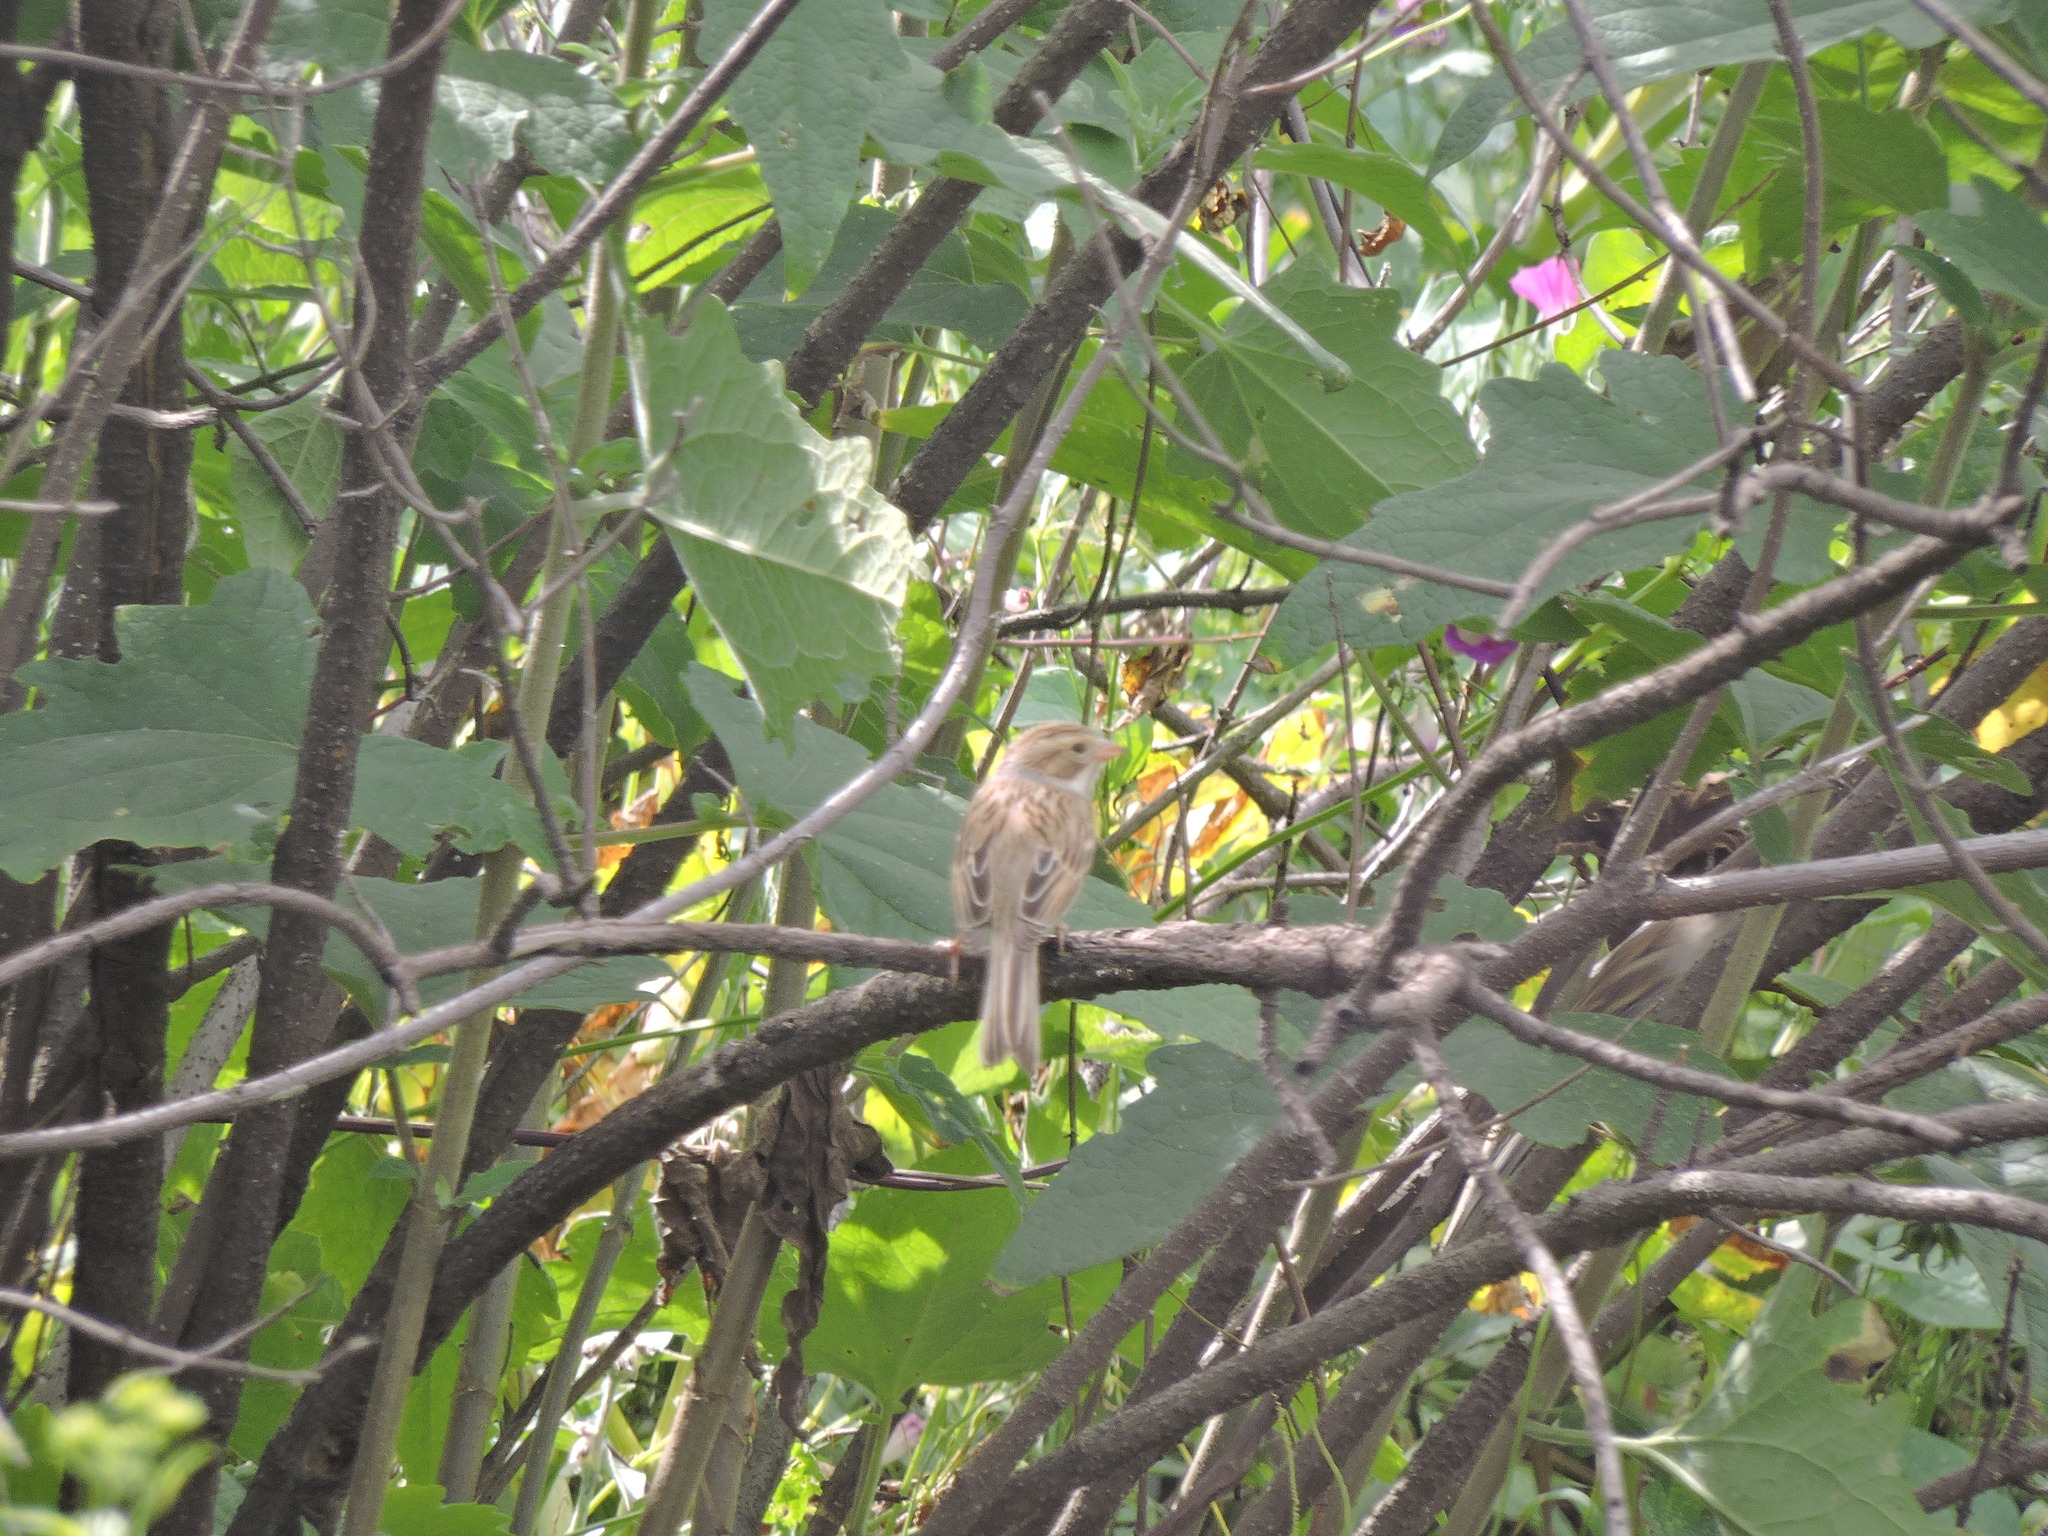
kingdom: Animalia
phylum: Chordata
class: Aves
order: Passeriformes
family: Passerellidae
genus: Spizella
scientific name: Spizella pallida
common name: Clay-colored sparrow
